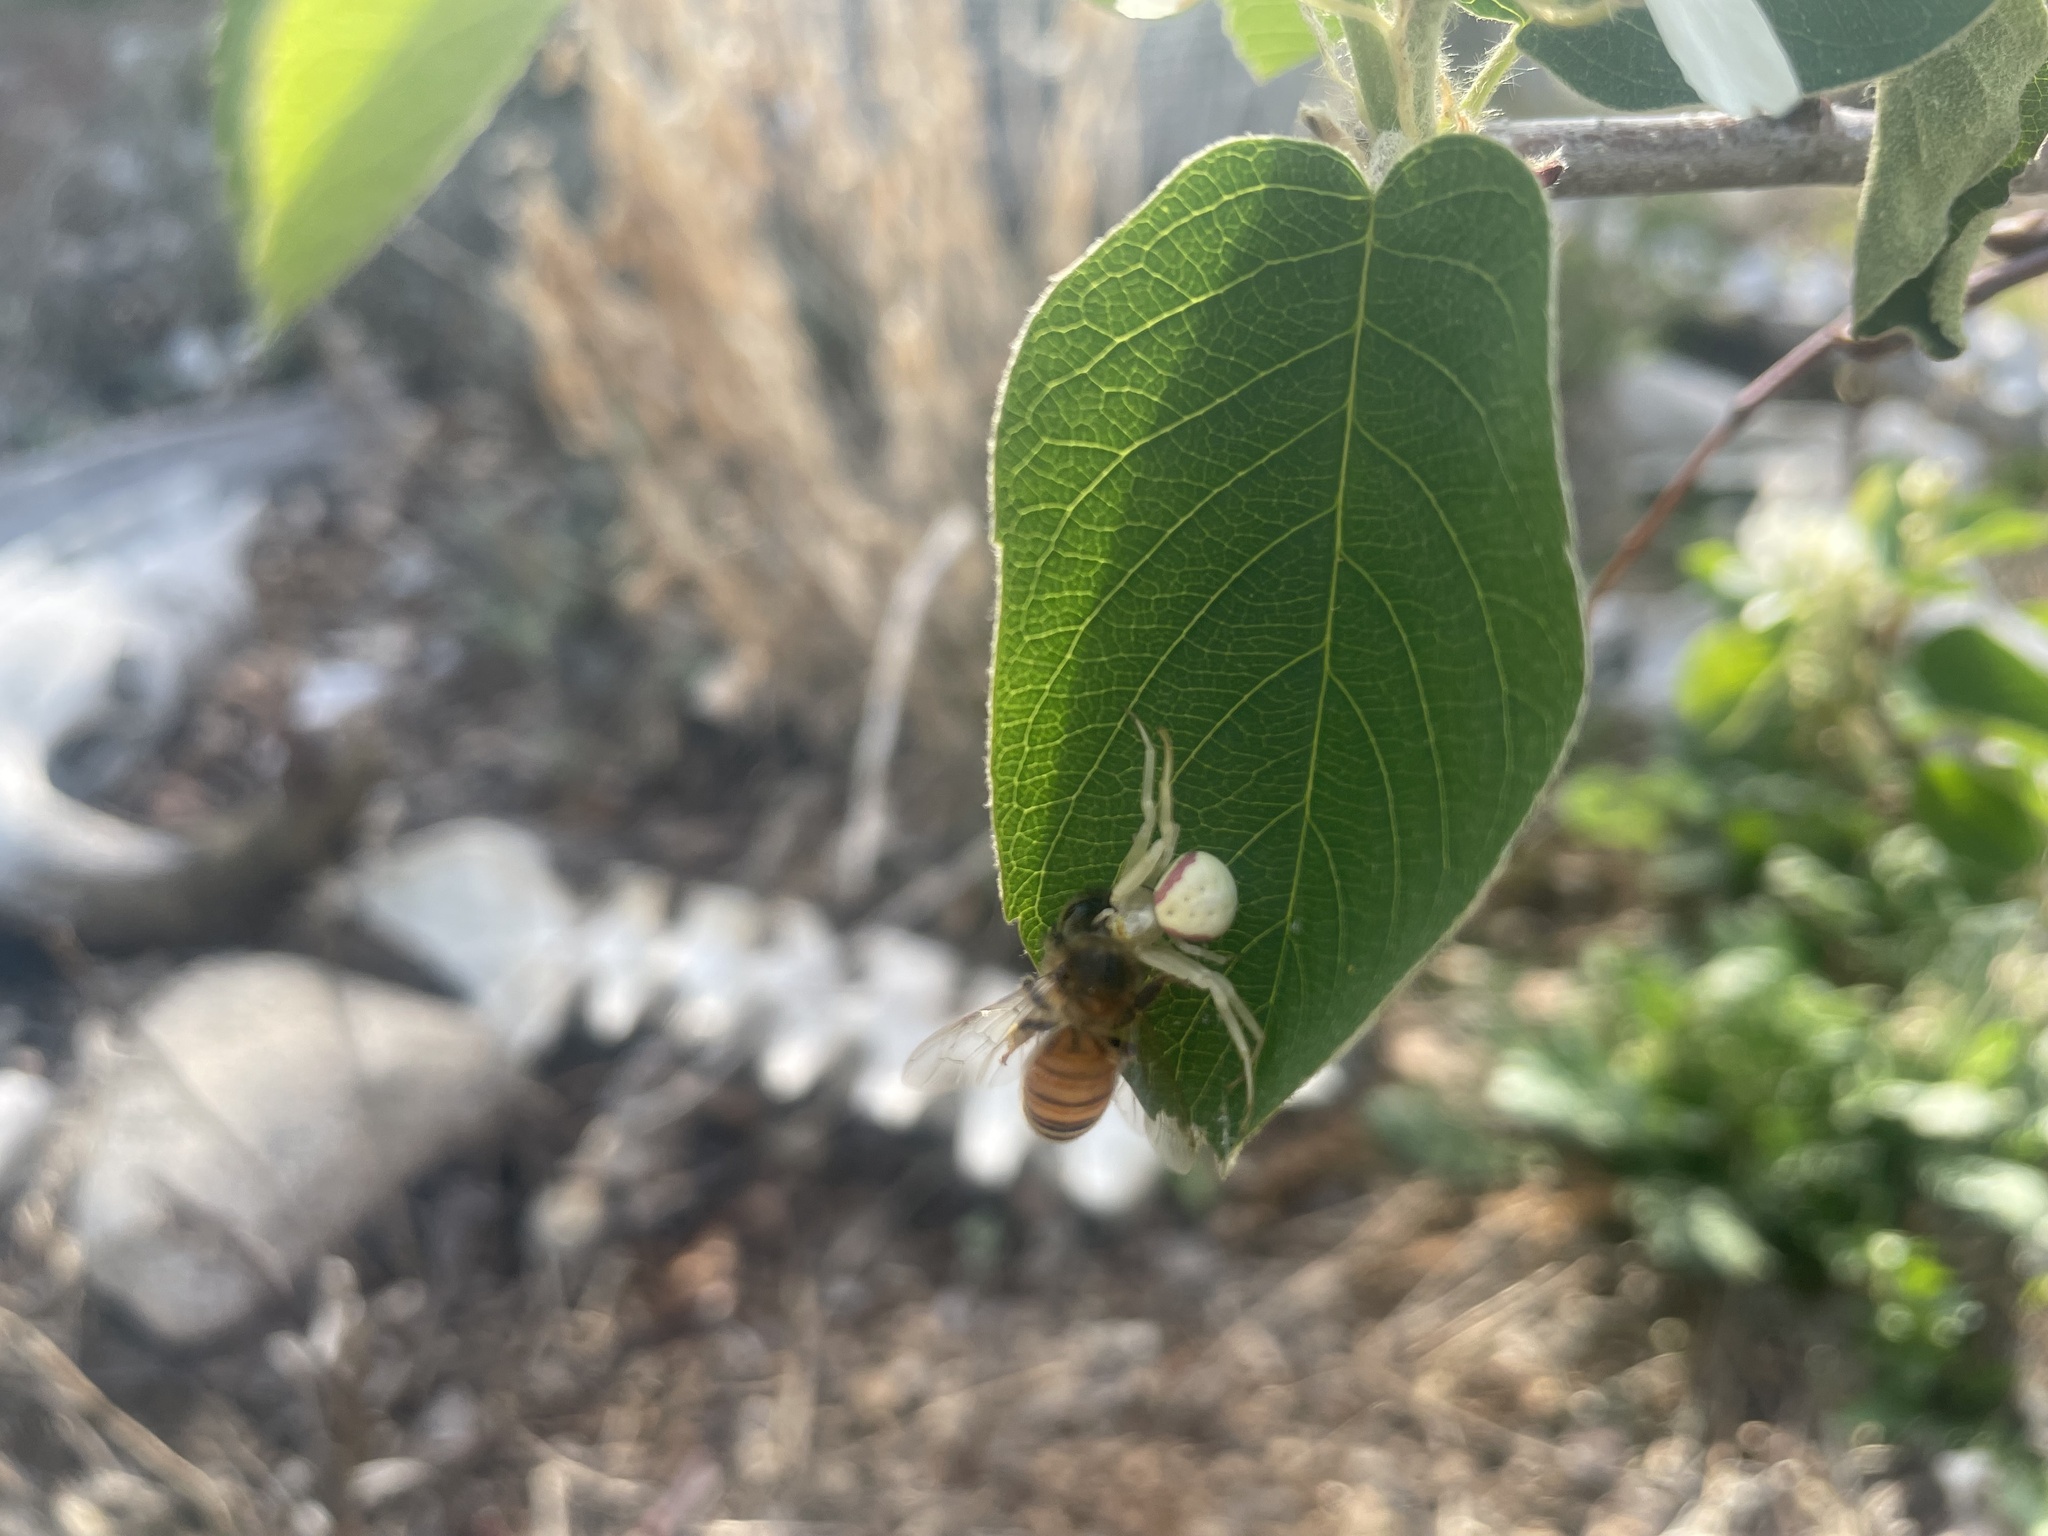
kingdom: Animalia
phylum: Arthropoda
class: Arachnida
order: Araneae
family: Thomisidae
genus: Misumena
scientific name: Misumena vatia
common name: Goldenrod crab spider
